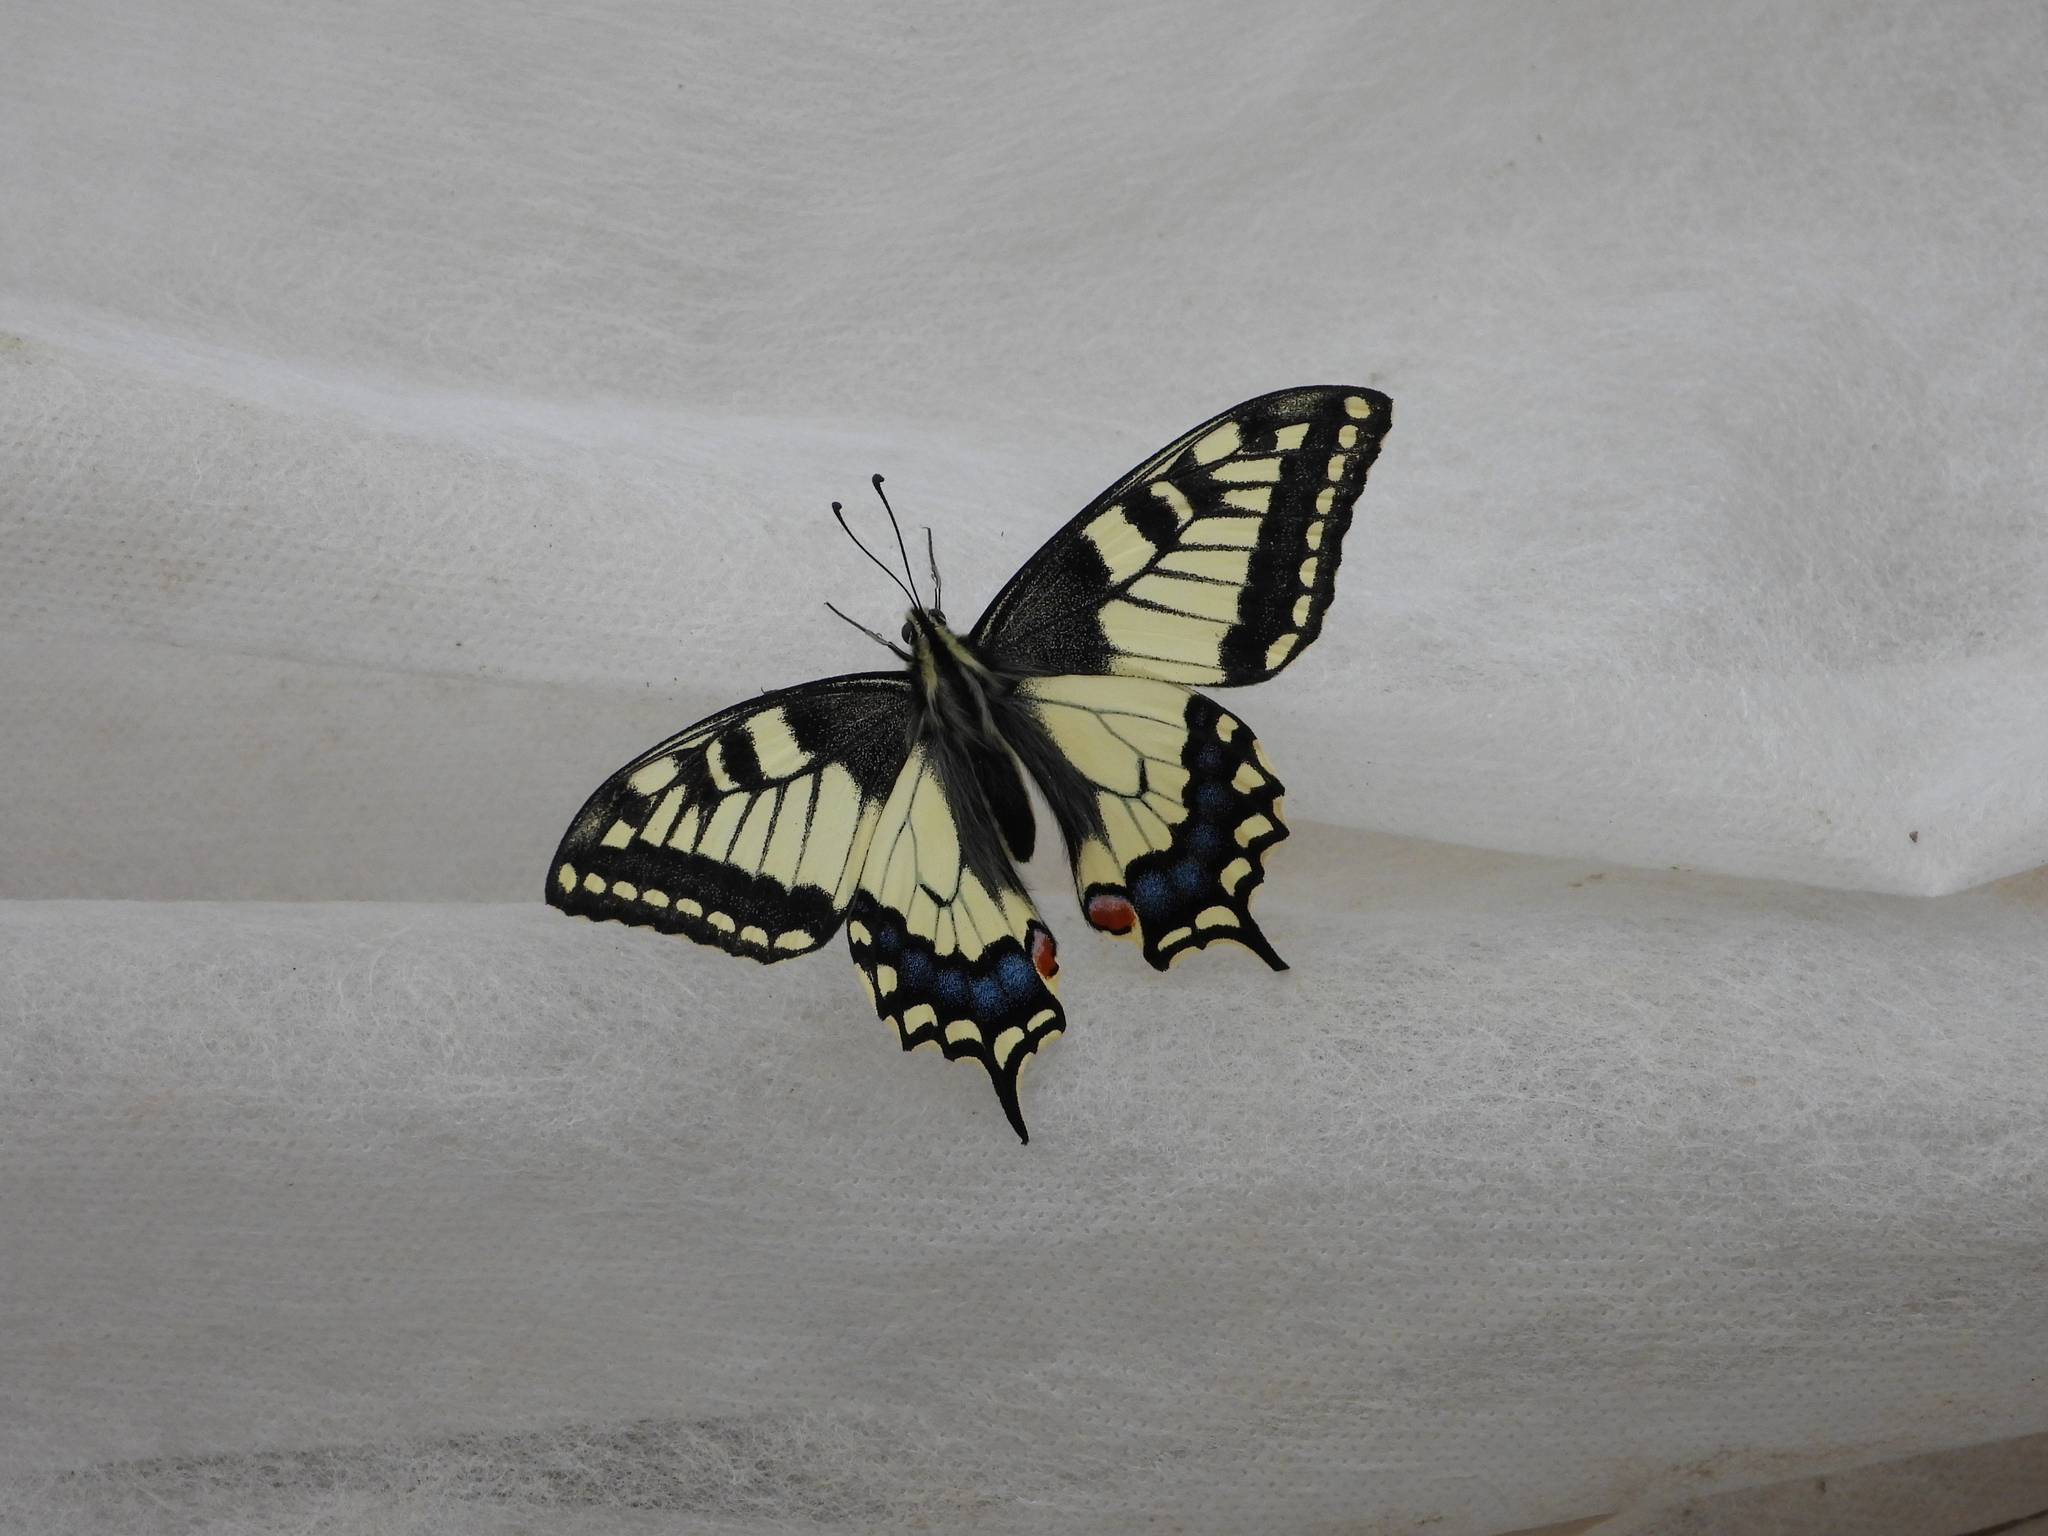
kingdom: Animalia
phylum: Arthropoda
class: Insecta
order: Lepidoptera
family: Papilionidae
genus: Papilio
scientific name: Papilio machaon
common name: Swallowtail
